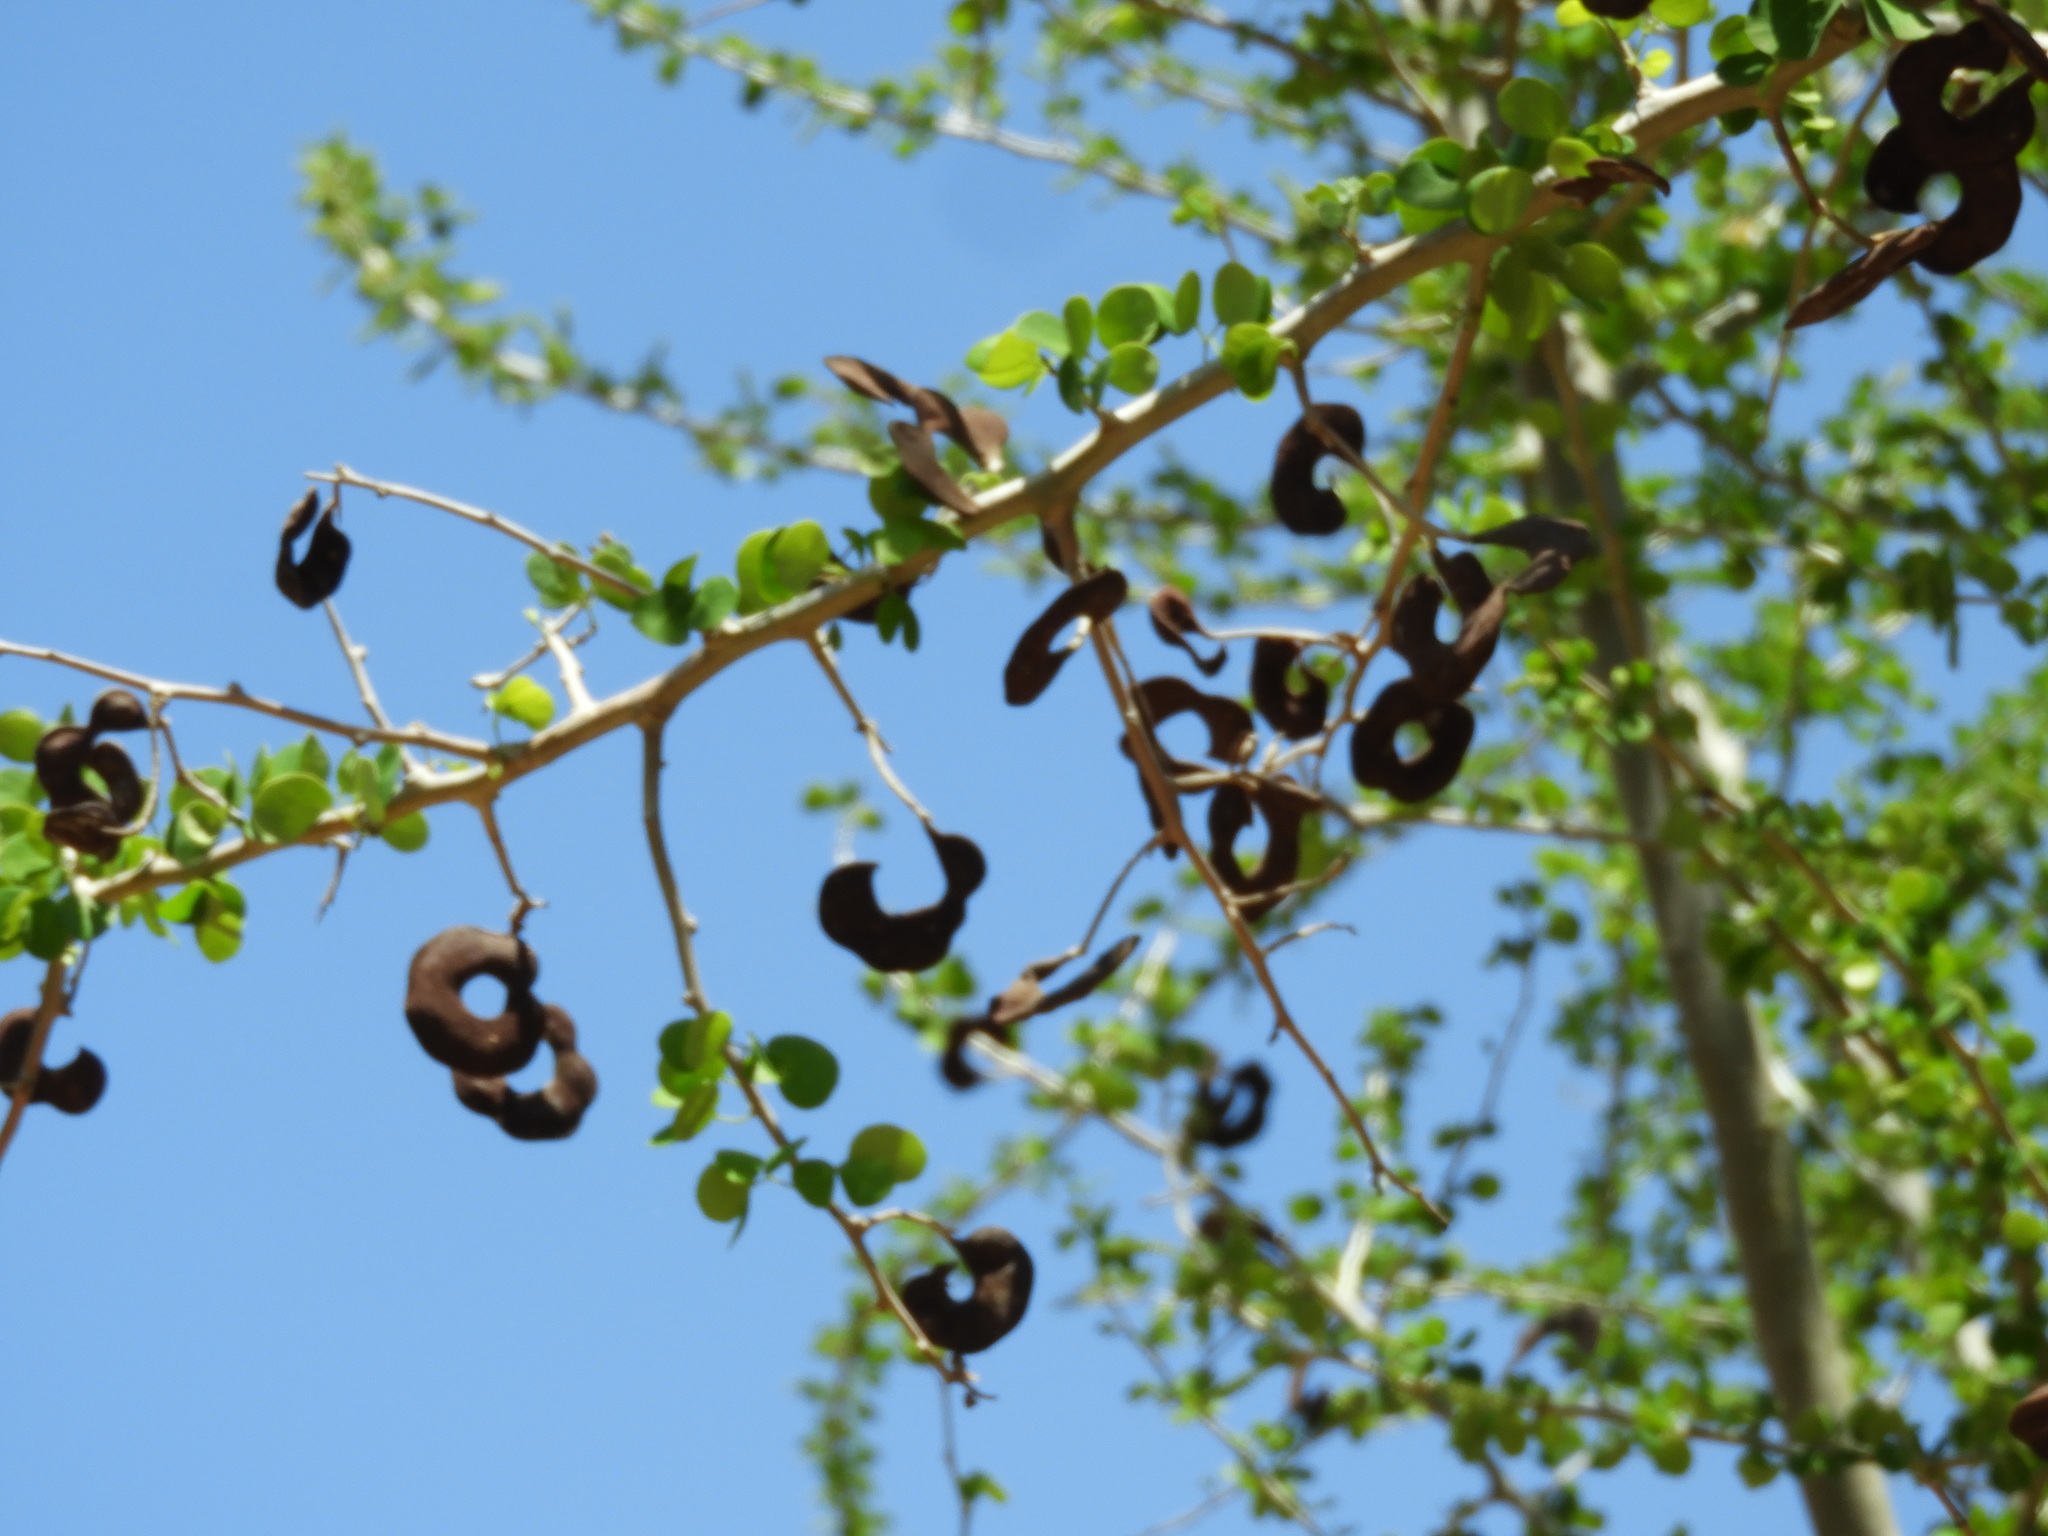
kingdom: Plantae
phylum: Tracheophyta
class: Magnoliopsida
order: Fabales
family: Fabaceae
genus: Microlobius
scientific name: Microlobius foetidus
